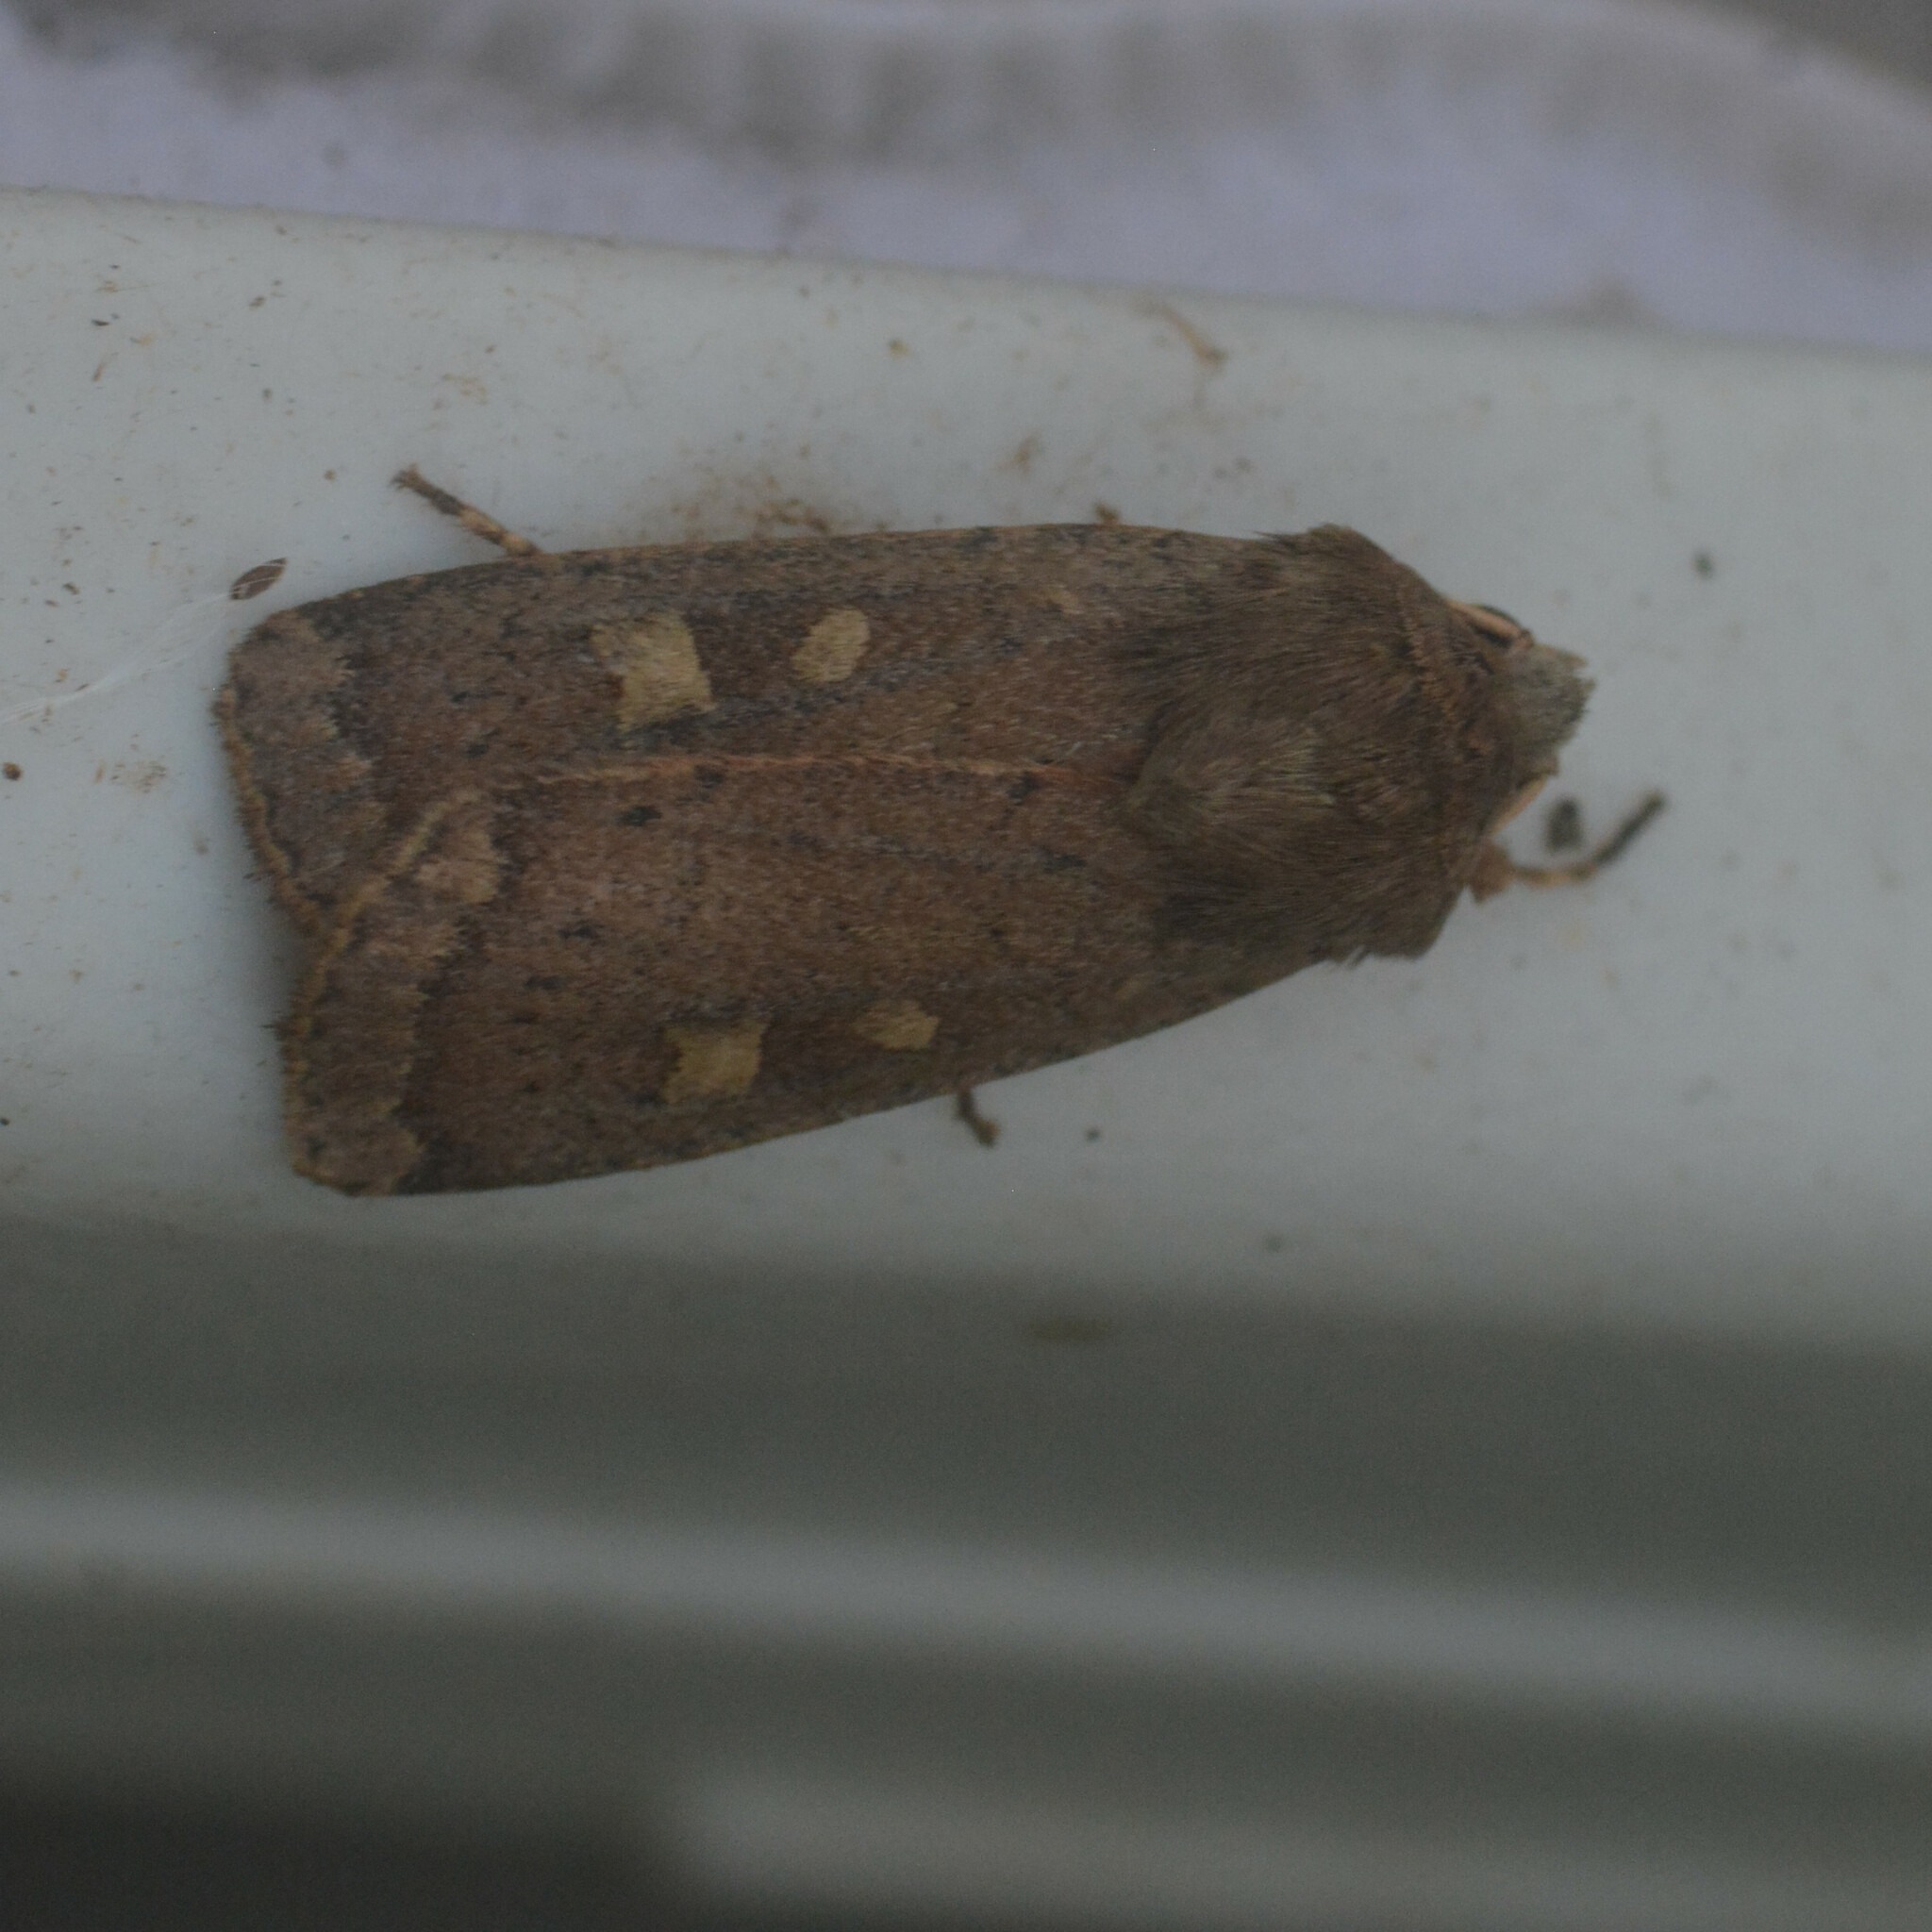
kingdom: Animalia
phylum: Arthropoda
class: Insecta
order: Lepidoptera
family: Noctuidae
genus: Xestia
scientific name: Xestia xanthographa
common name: Square-spot rustic
